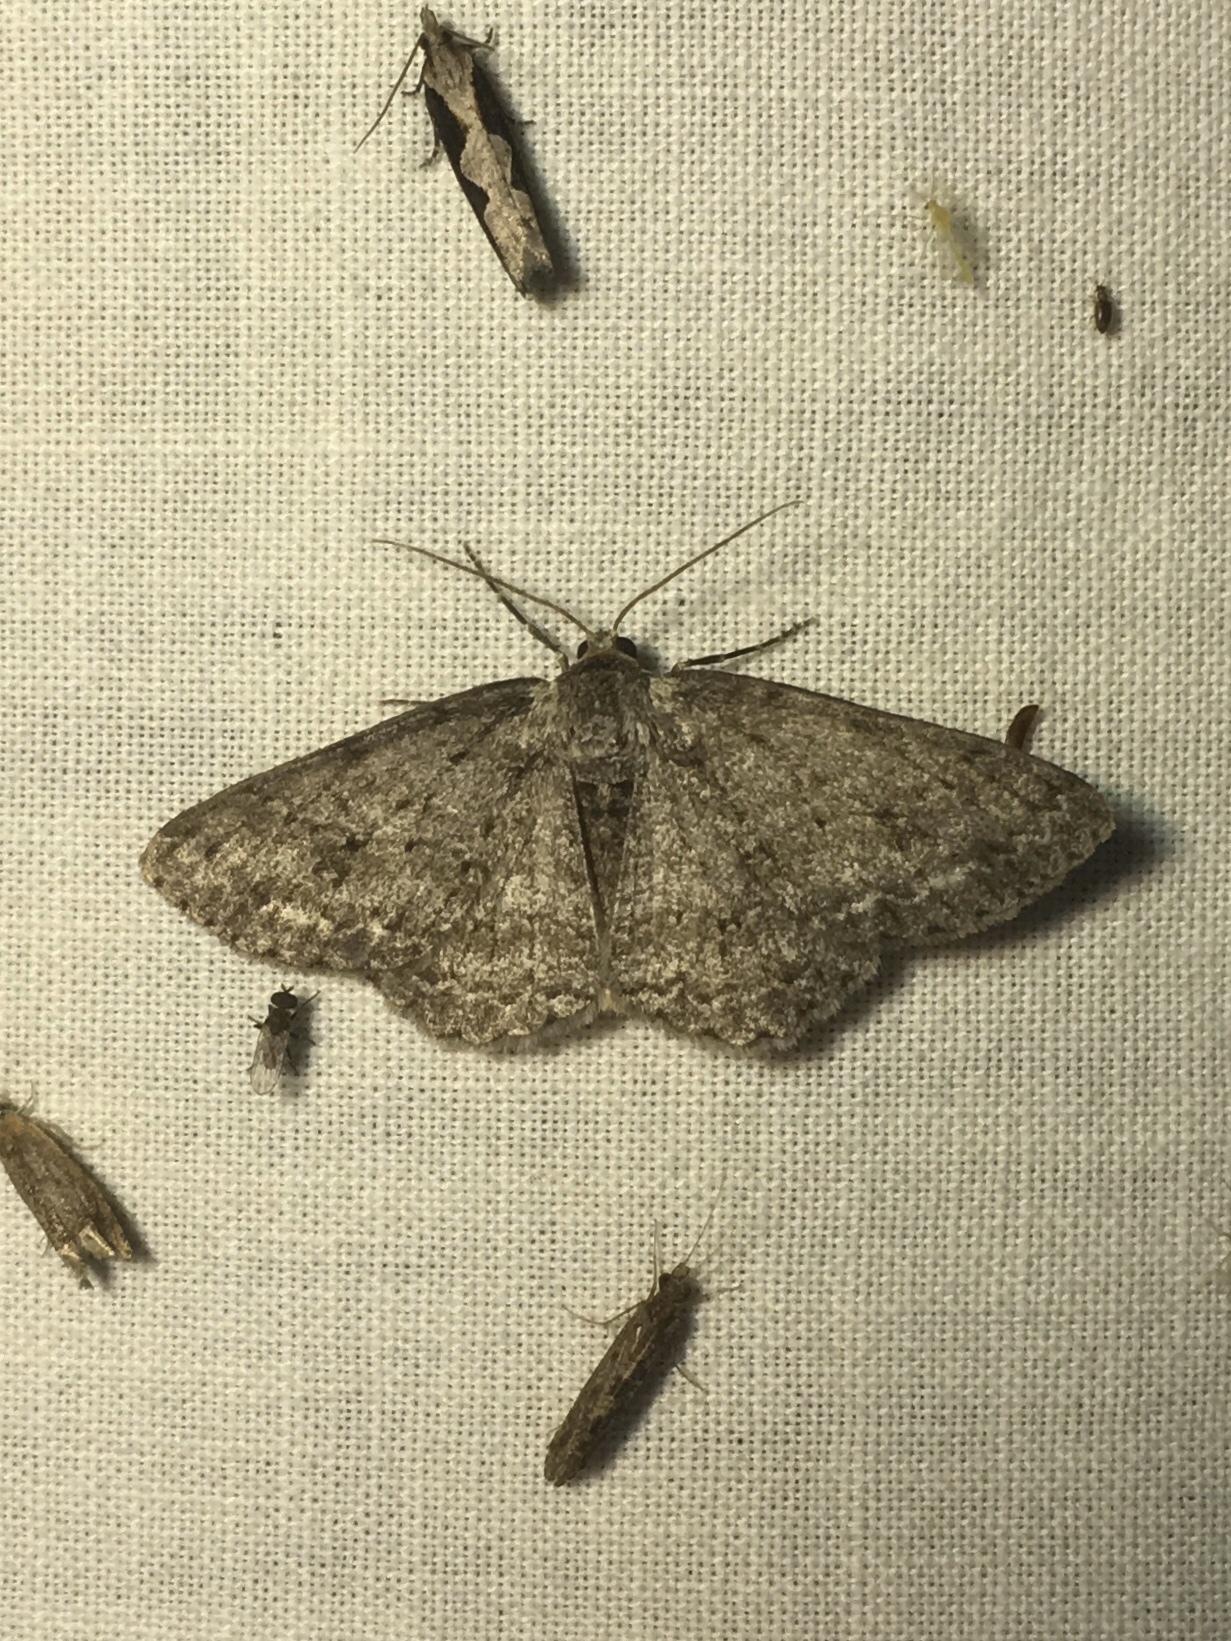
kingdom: Animalia
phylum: Arthropoda
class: Insecta
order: Lepidoptera
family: Geometridae
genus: Ectropis
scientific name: Ectropis crepuscularia
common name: Engrailed
